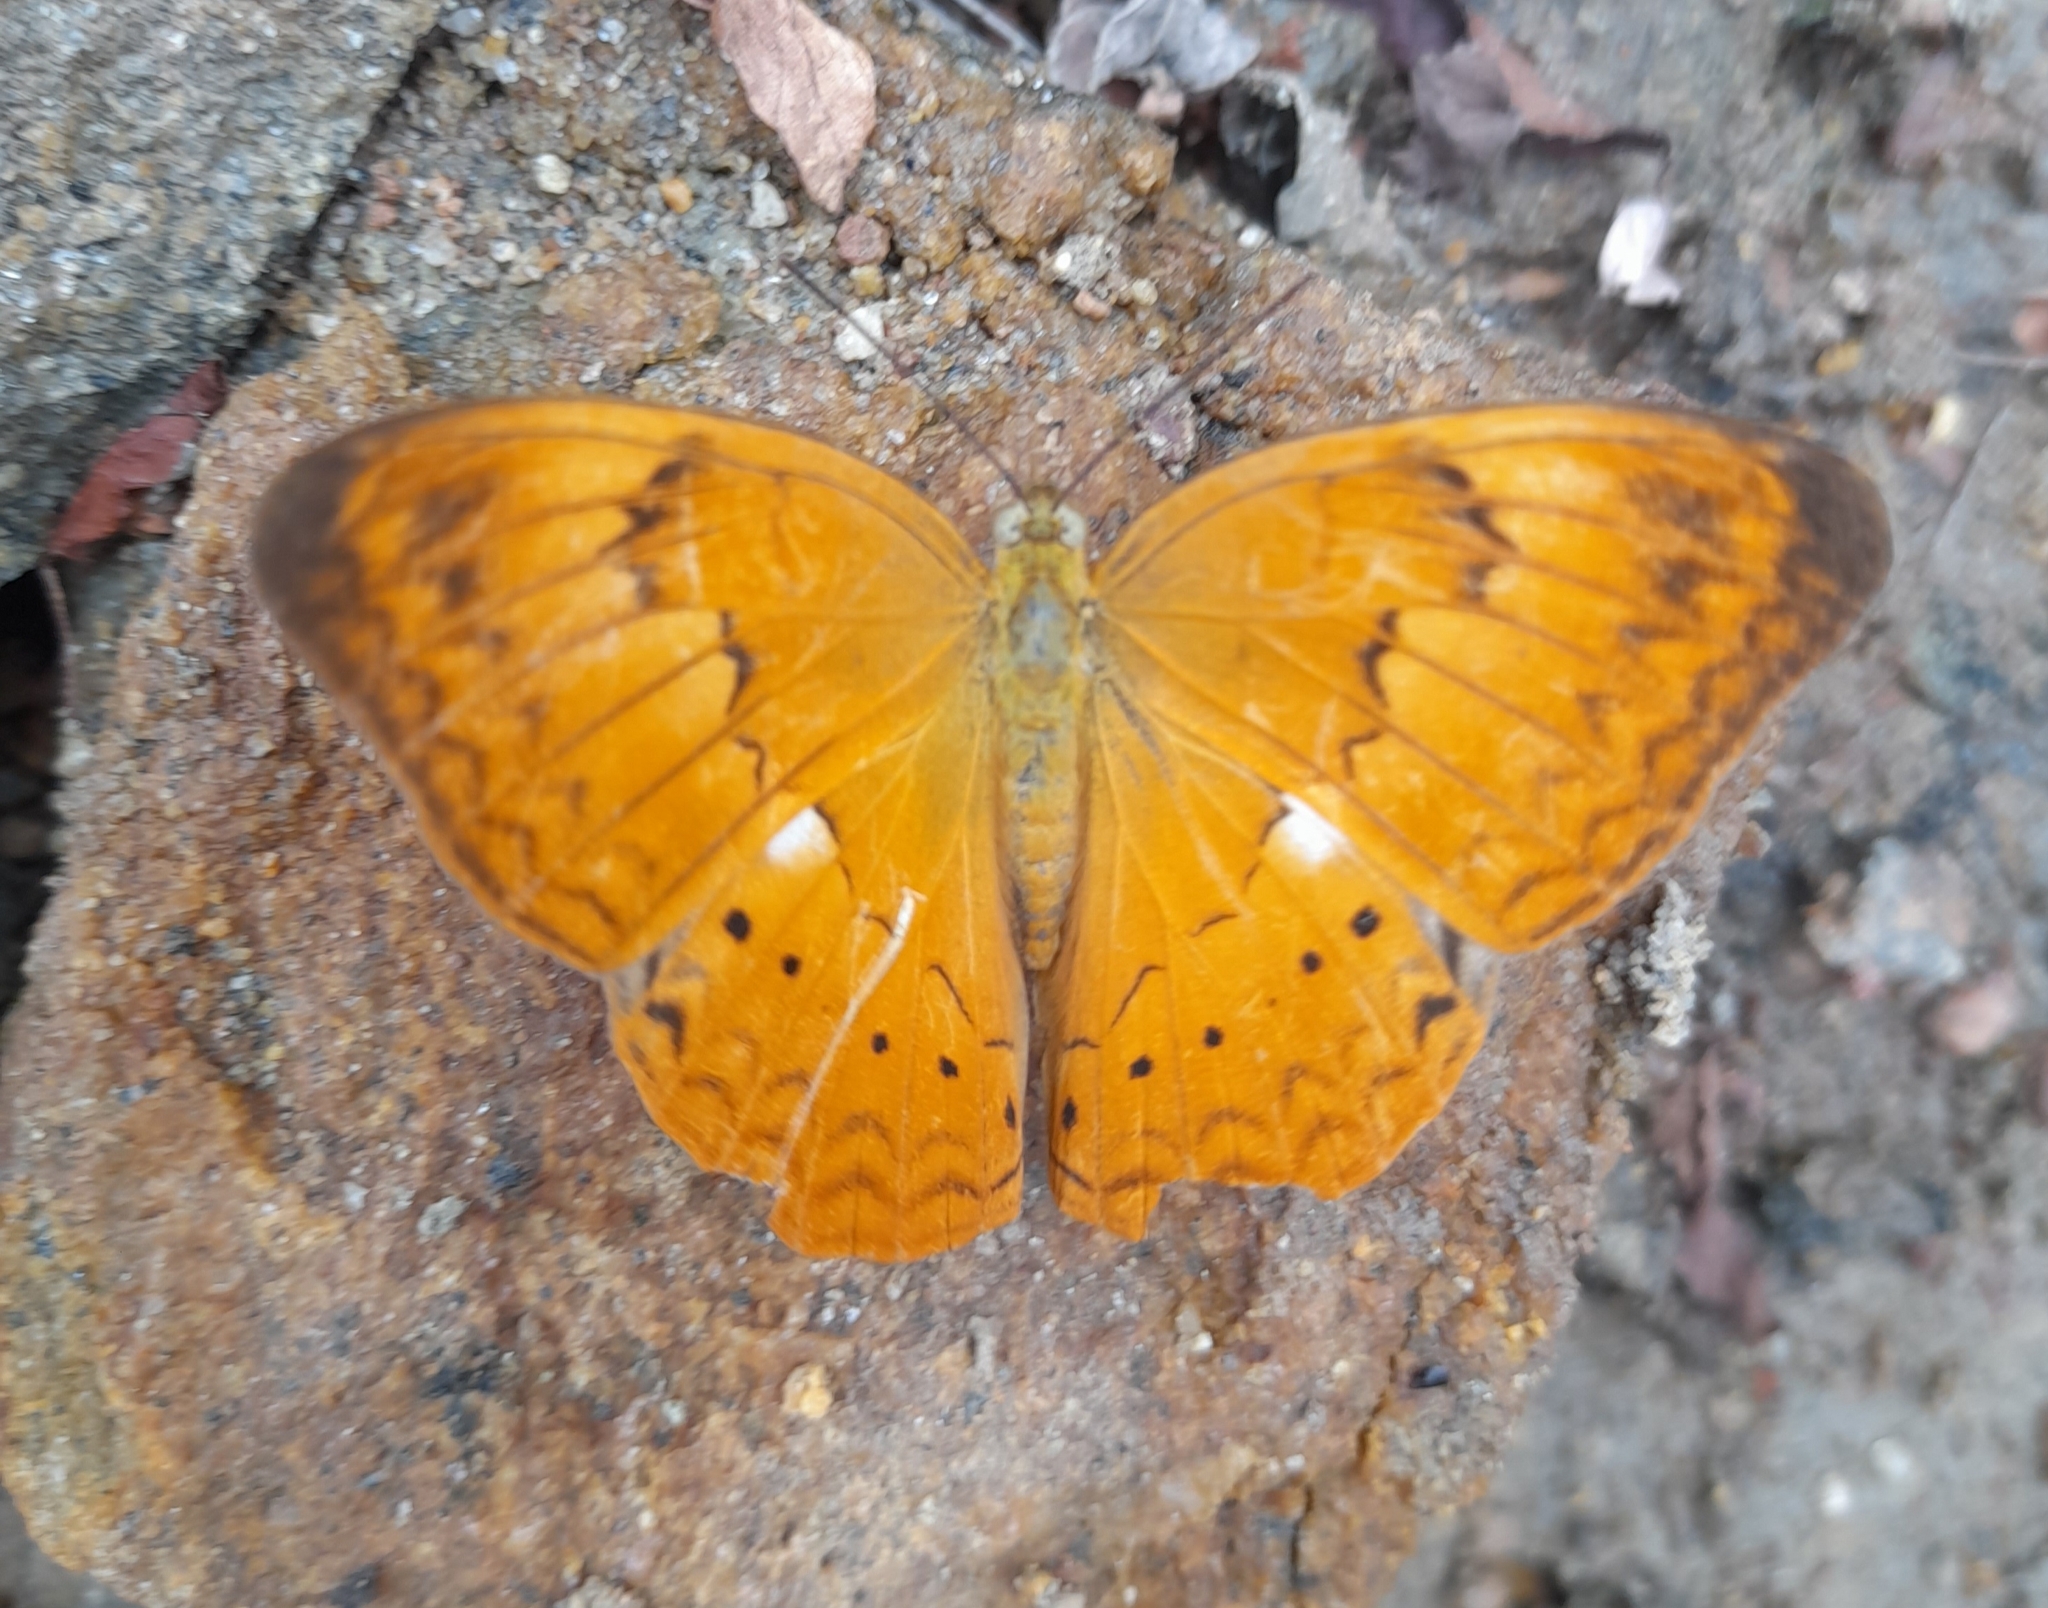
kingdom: Animalia
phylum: Arthropoda
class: Insecta
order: Lepidoptera
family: Nymphalidae
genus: Cirrochroa
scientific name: Cirrochroa thais
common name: Tamil yeoman
